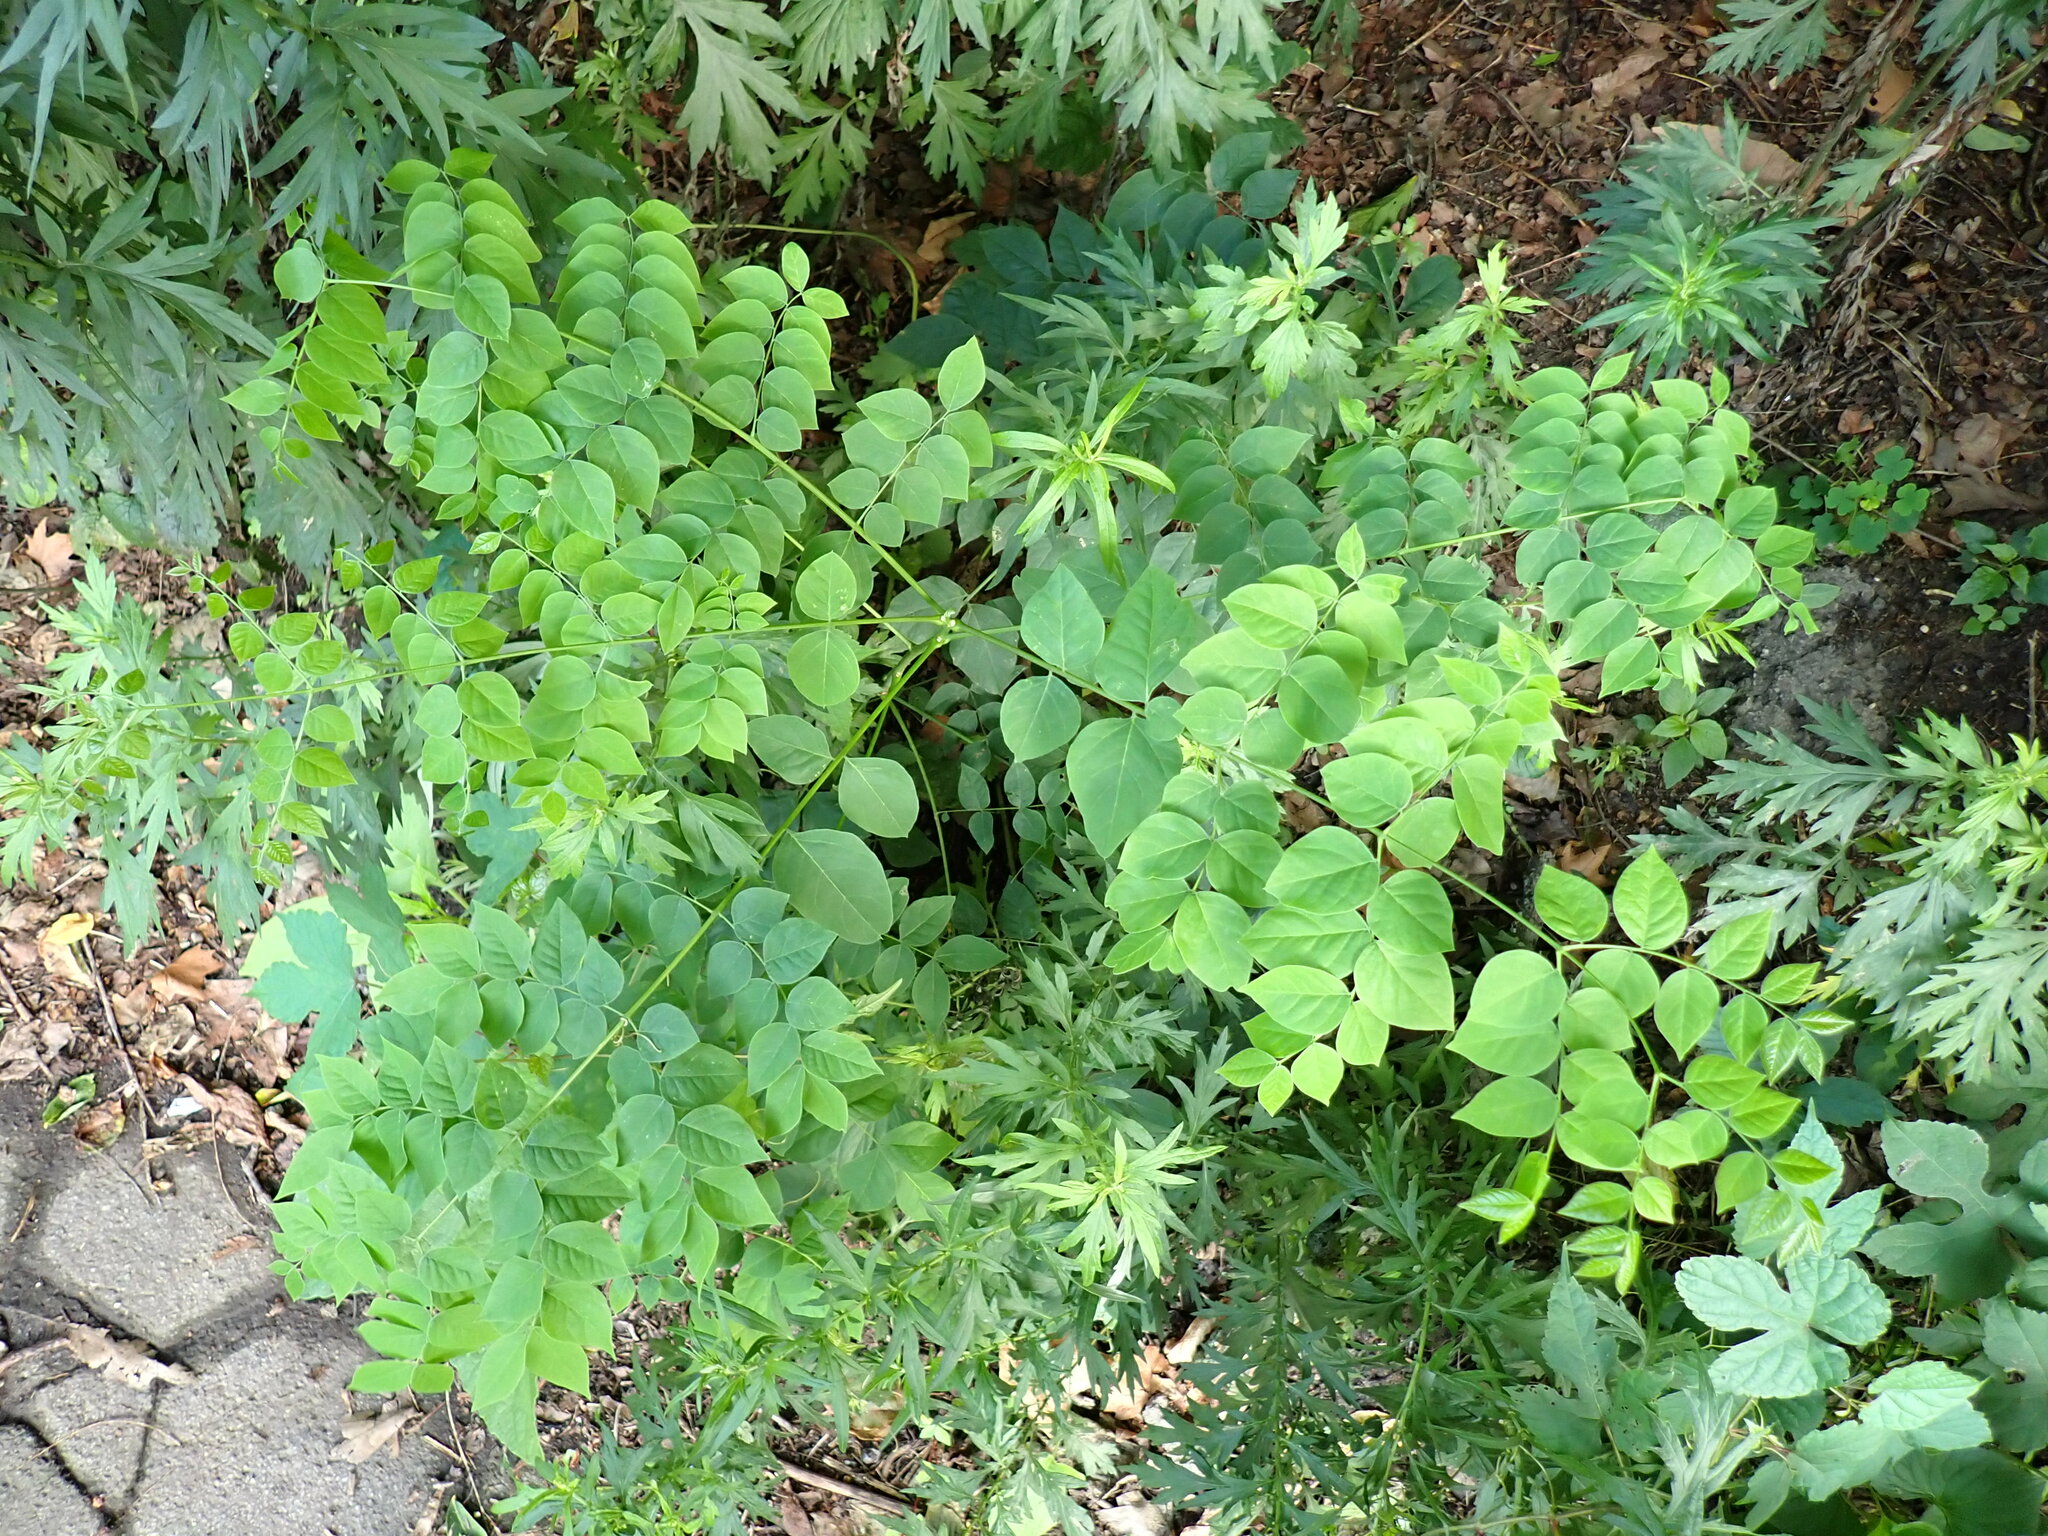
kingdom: Plantae
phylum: Tracheophyta
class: Magnoliopsida
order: Fabales
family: Fabaceae
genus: Gymnocladus
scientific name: Gymnocladus dioicus
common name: Kentucky coffee-tree
